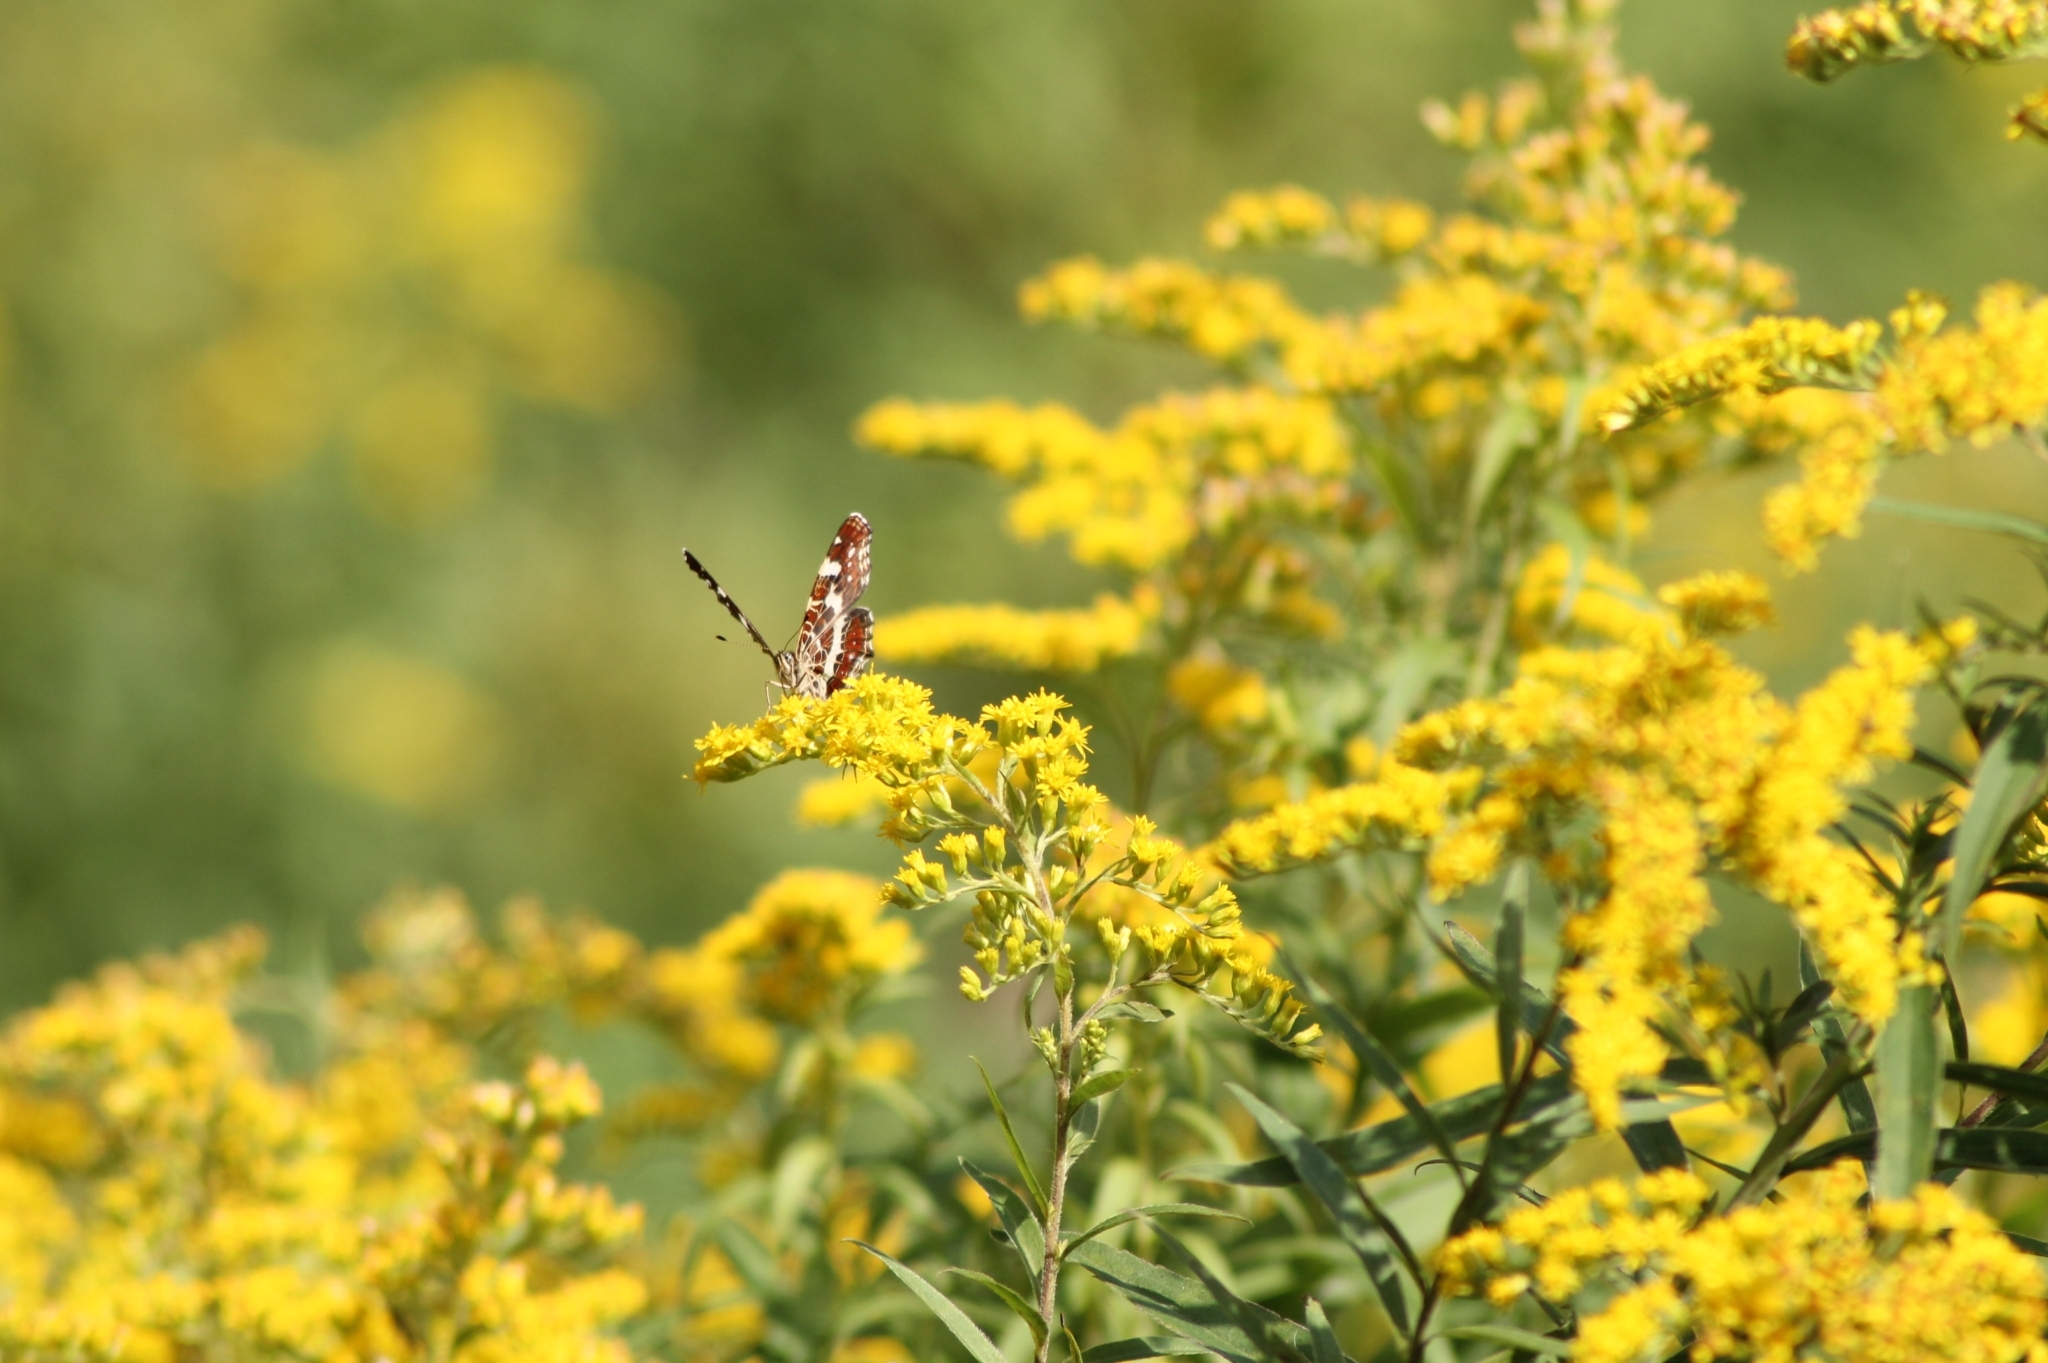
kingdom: Animalia
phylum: Arthropoda
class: Insecta
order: Lepidoptera
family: Nymphalidae
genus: Araschnia
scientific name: Araschnia levana
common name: Map butterfly
